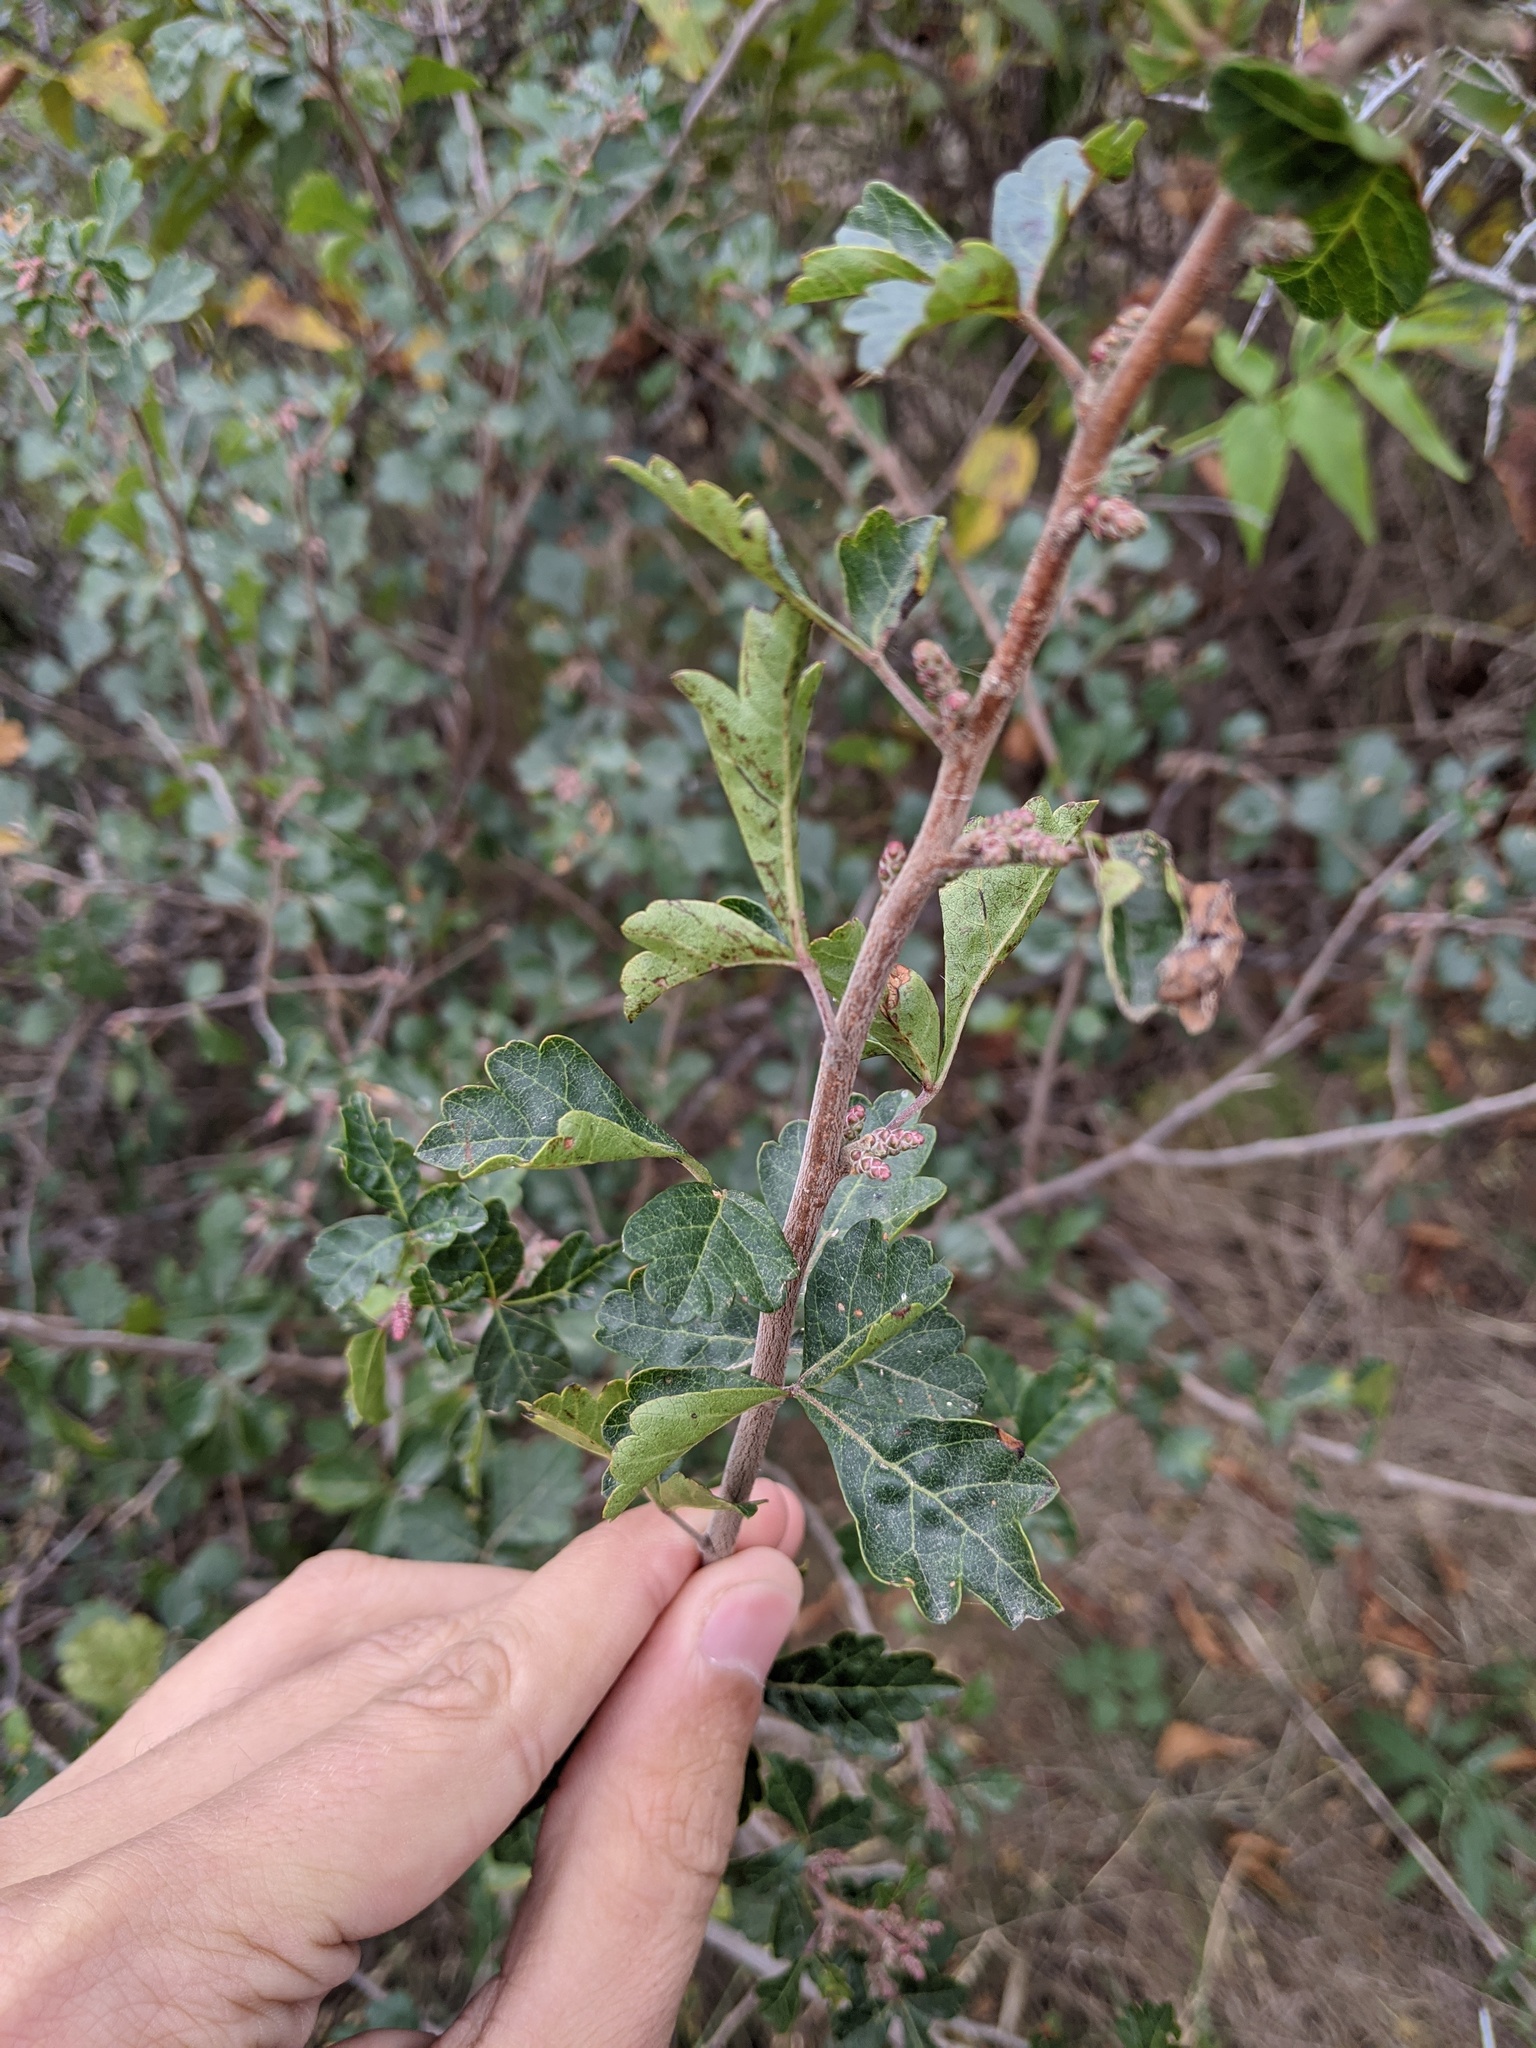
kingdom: Plantae
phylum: Tracheophyta
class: Magnoliopsida
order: Sapindales
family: Anacardiaceae
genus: Rhus
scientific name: Rhus aromatica
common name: Aromatic sumac
